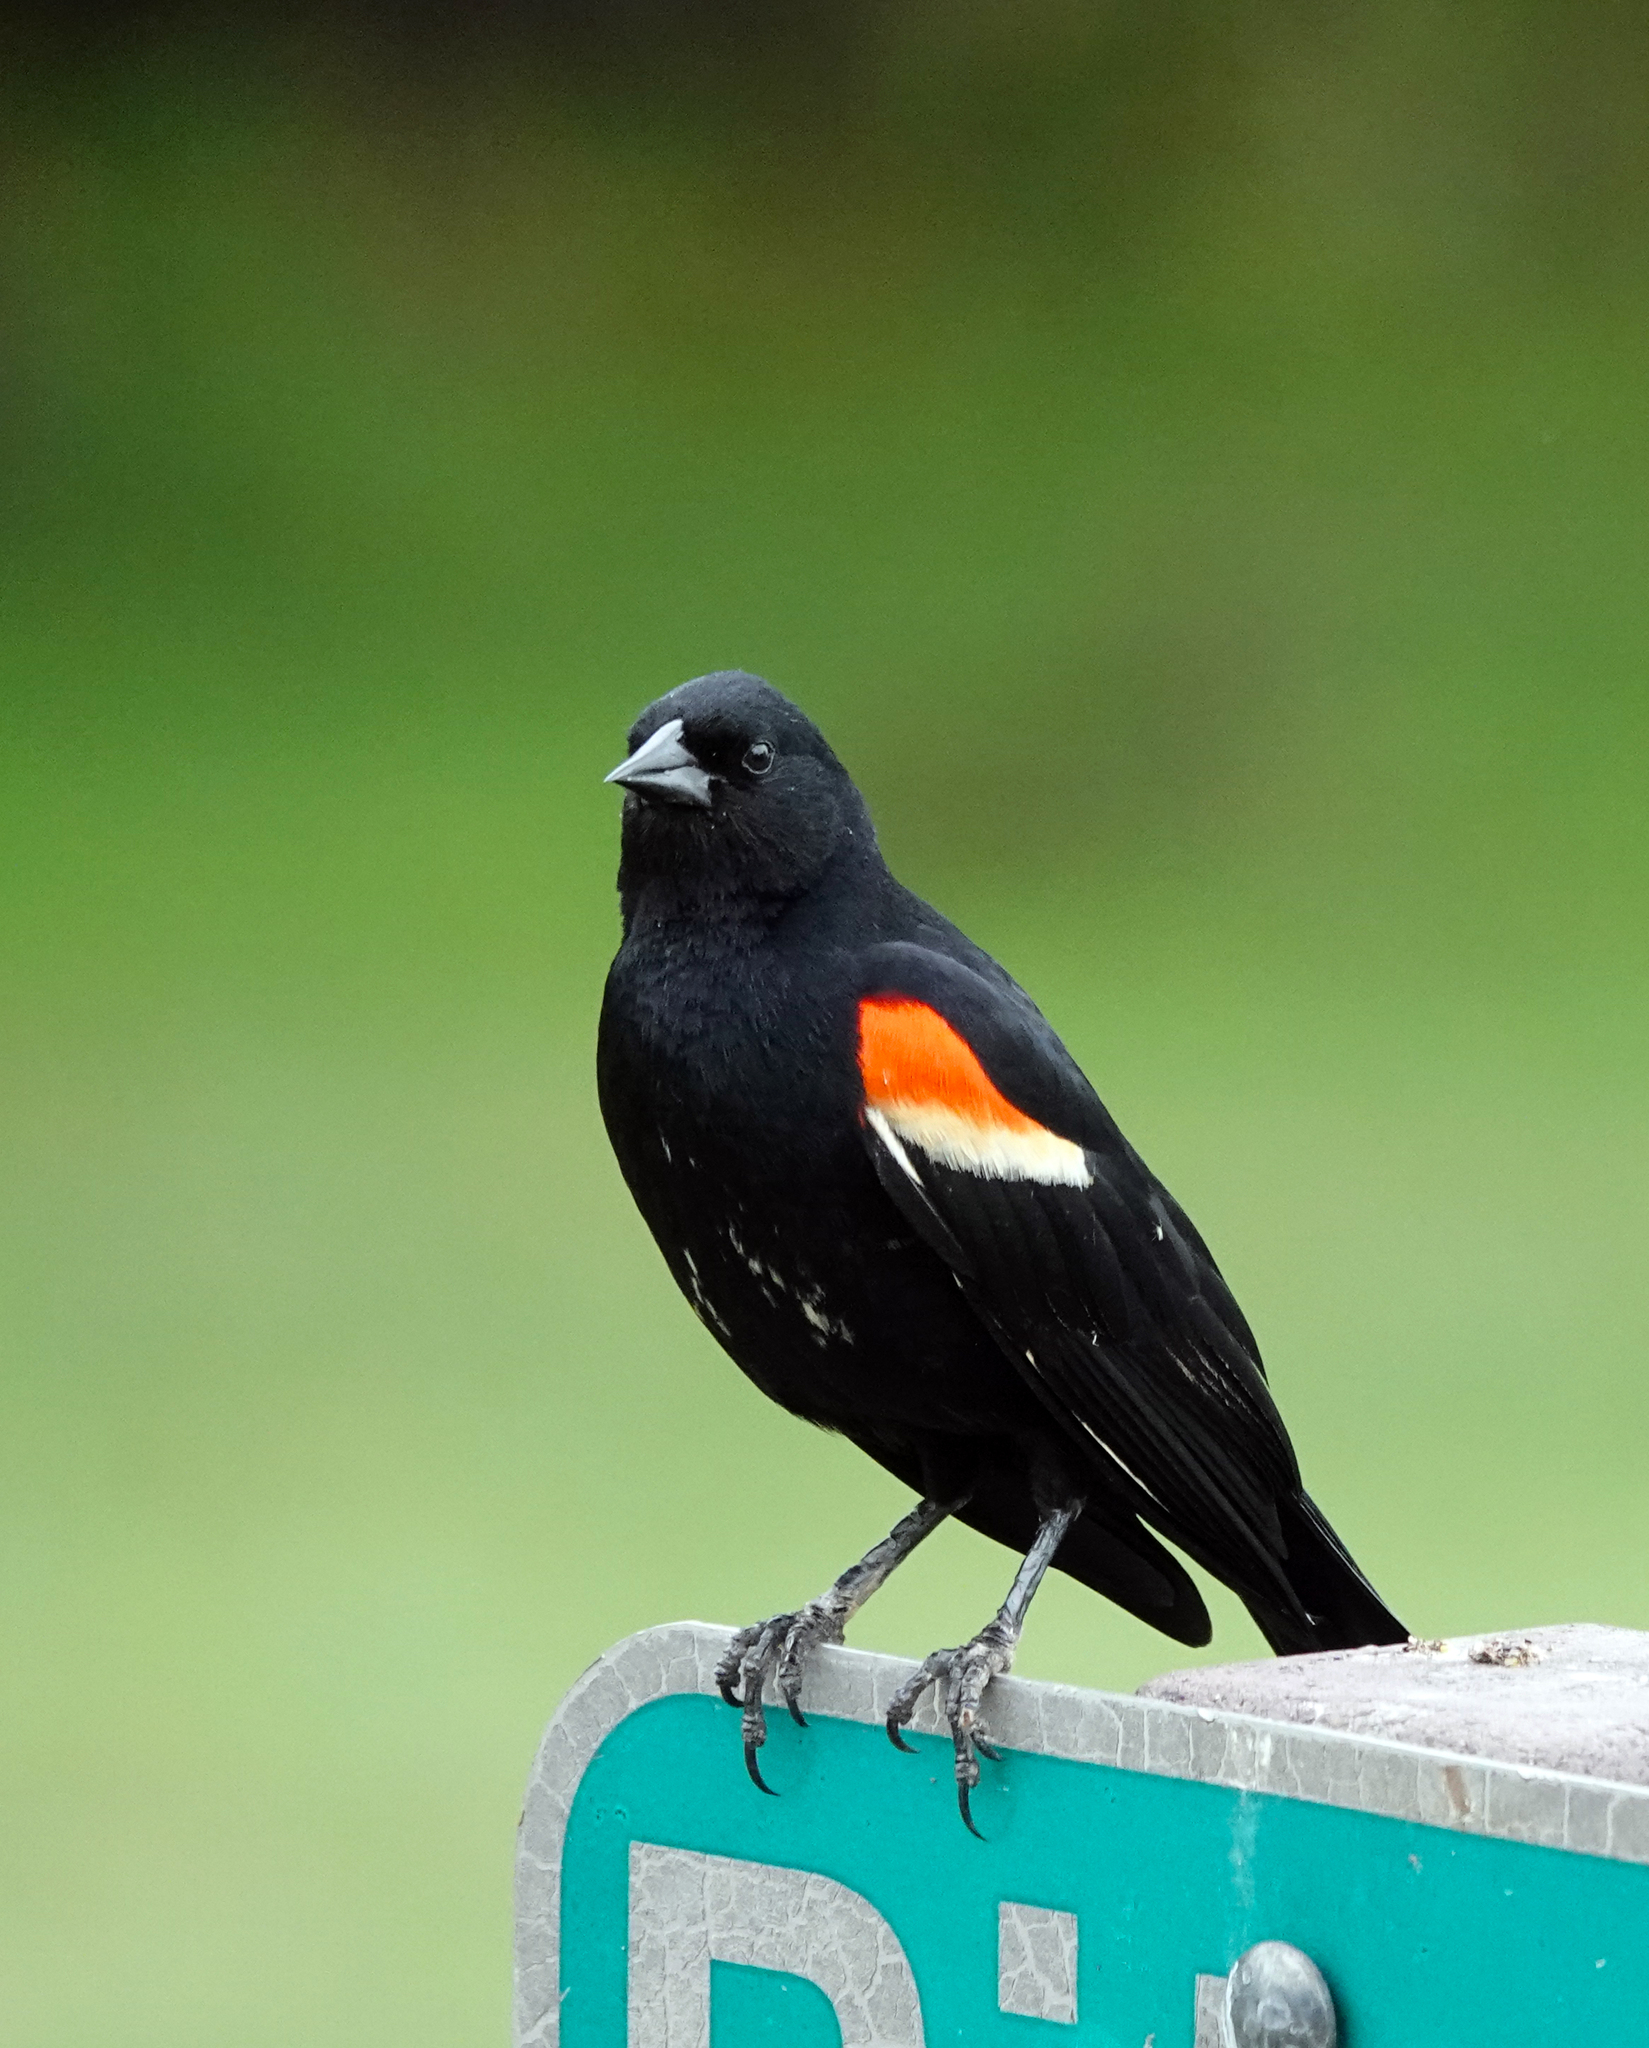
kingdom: Animalia
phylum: Chordata
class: Aves
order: Passeriformes
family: Icteridae
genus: Agelaius
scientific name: Agelaius phoeniceus
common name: Red-winged blackbird
